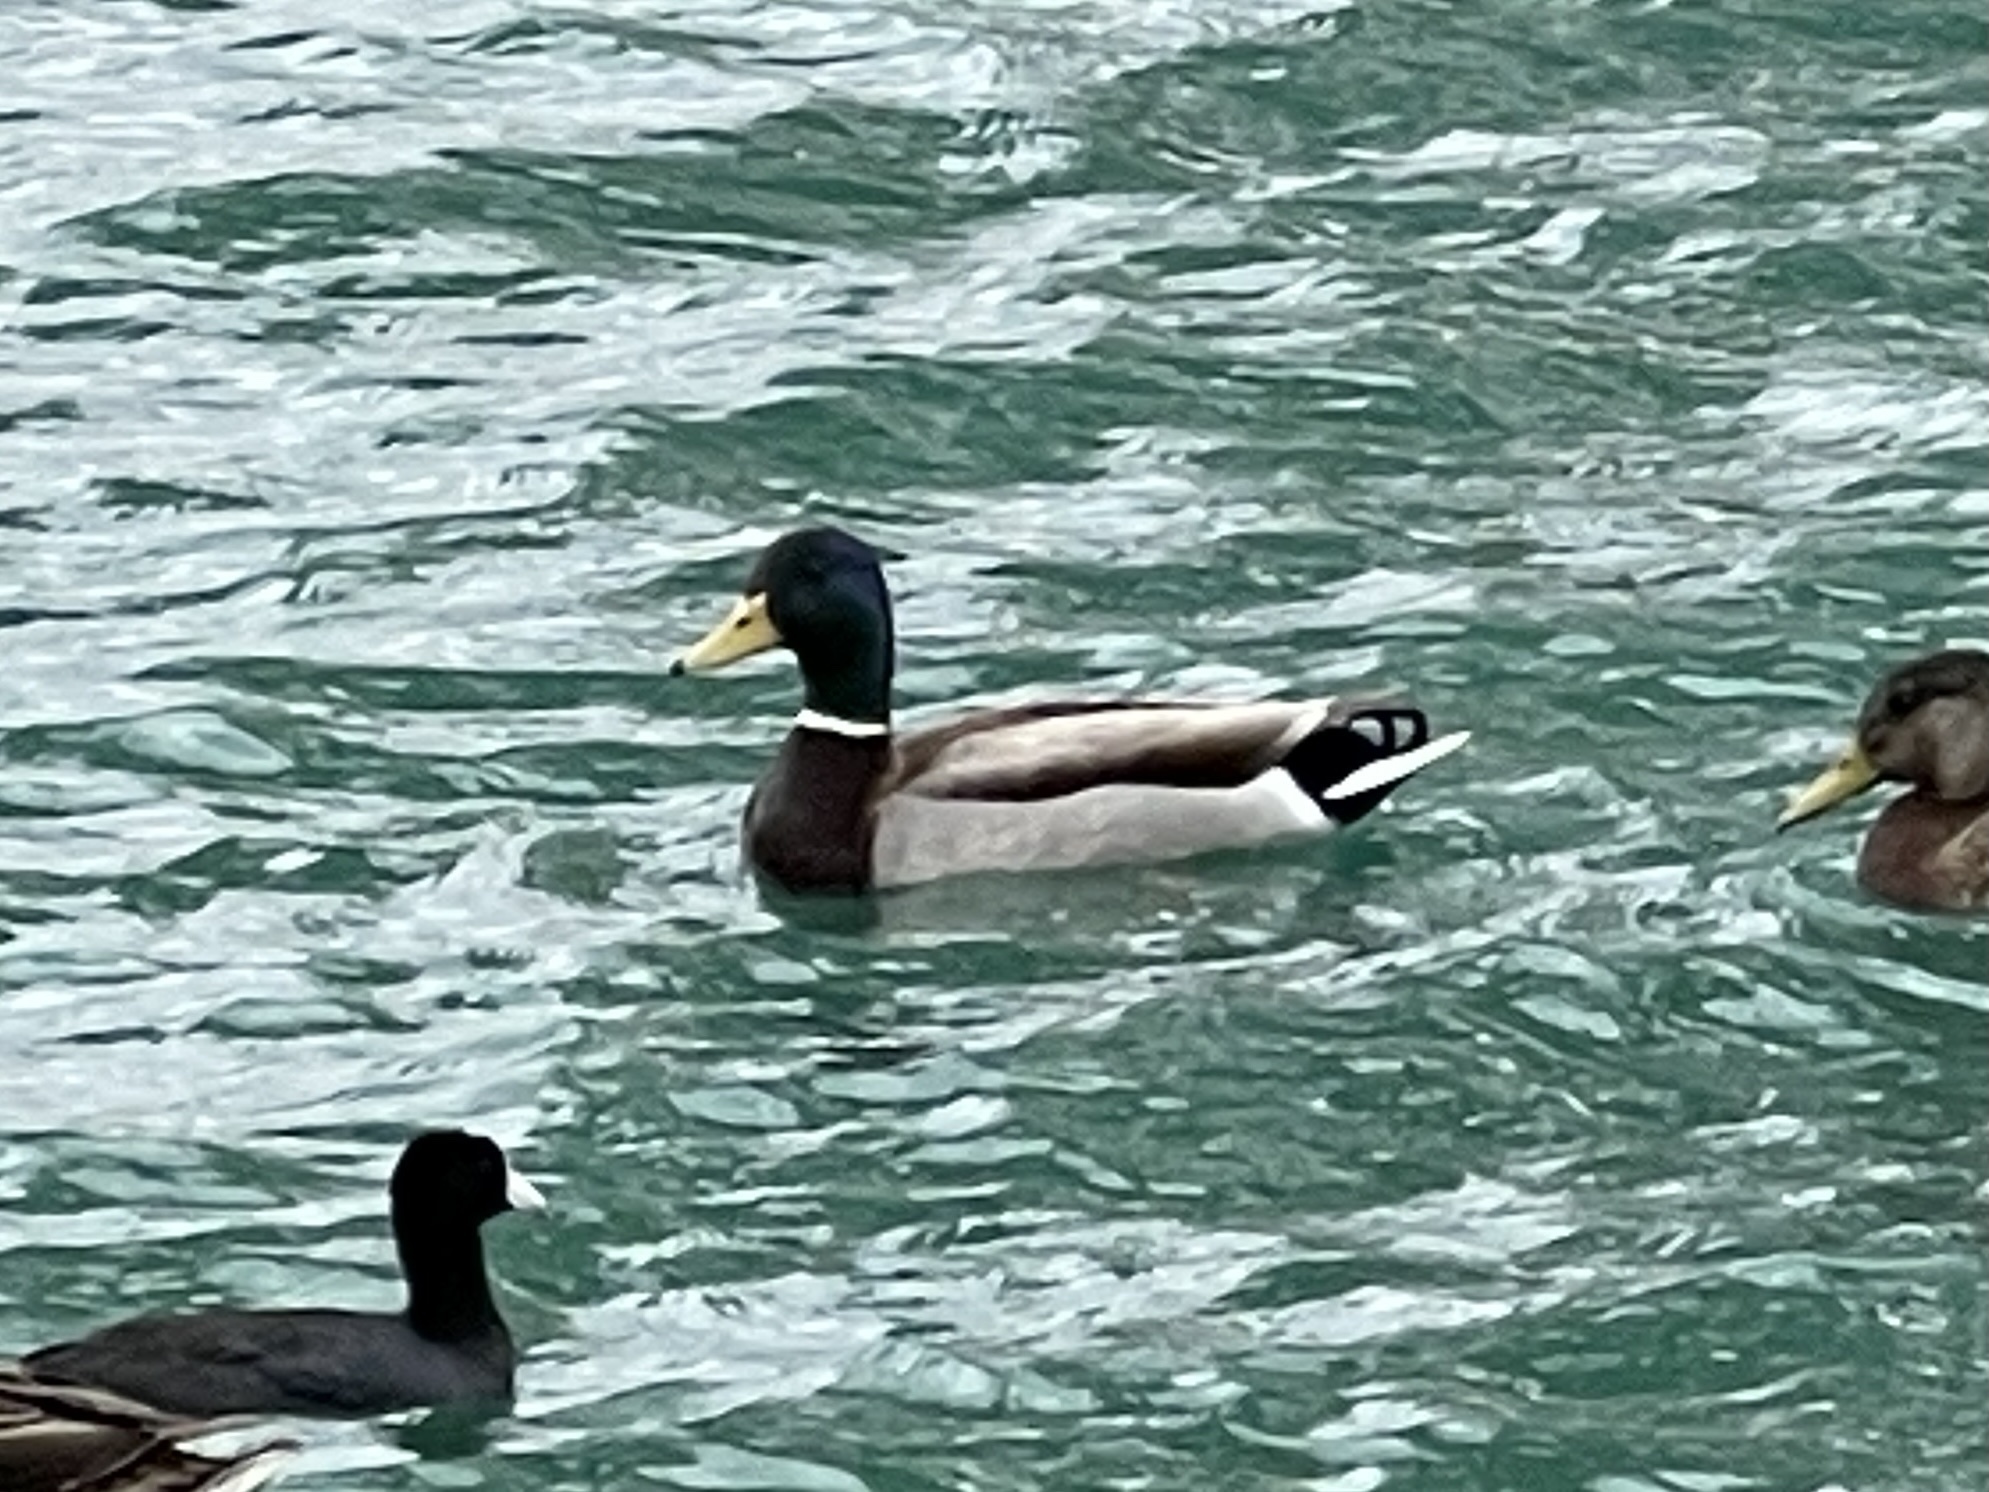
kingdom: Animalia
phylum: Chordata
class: Aves
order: Anseriformes
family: Anatidae
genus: Anas
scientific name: Anas platyrhynchos
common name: Mallard
